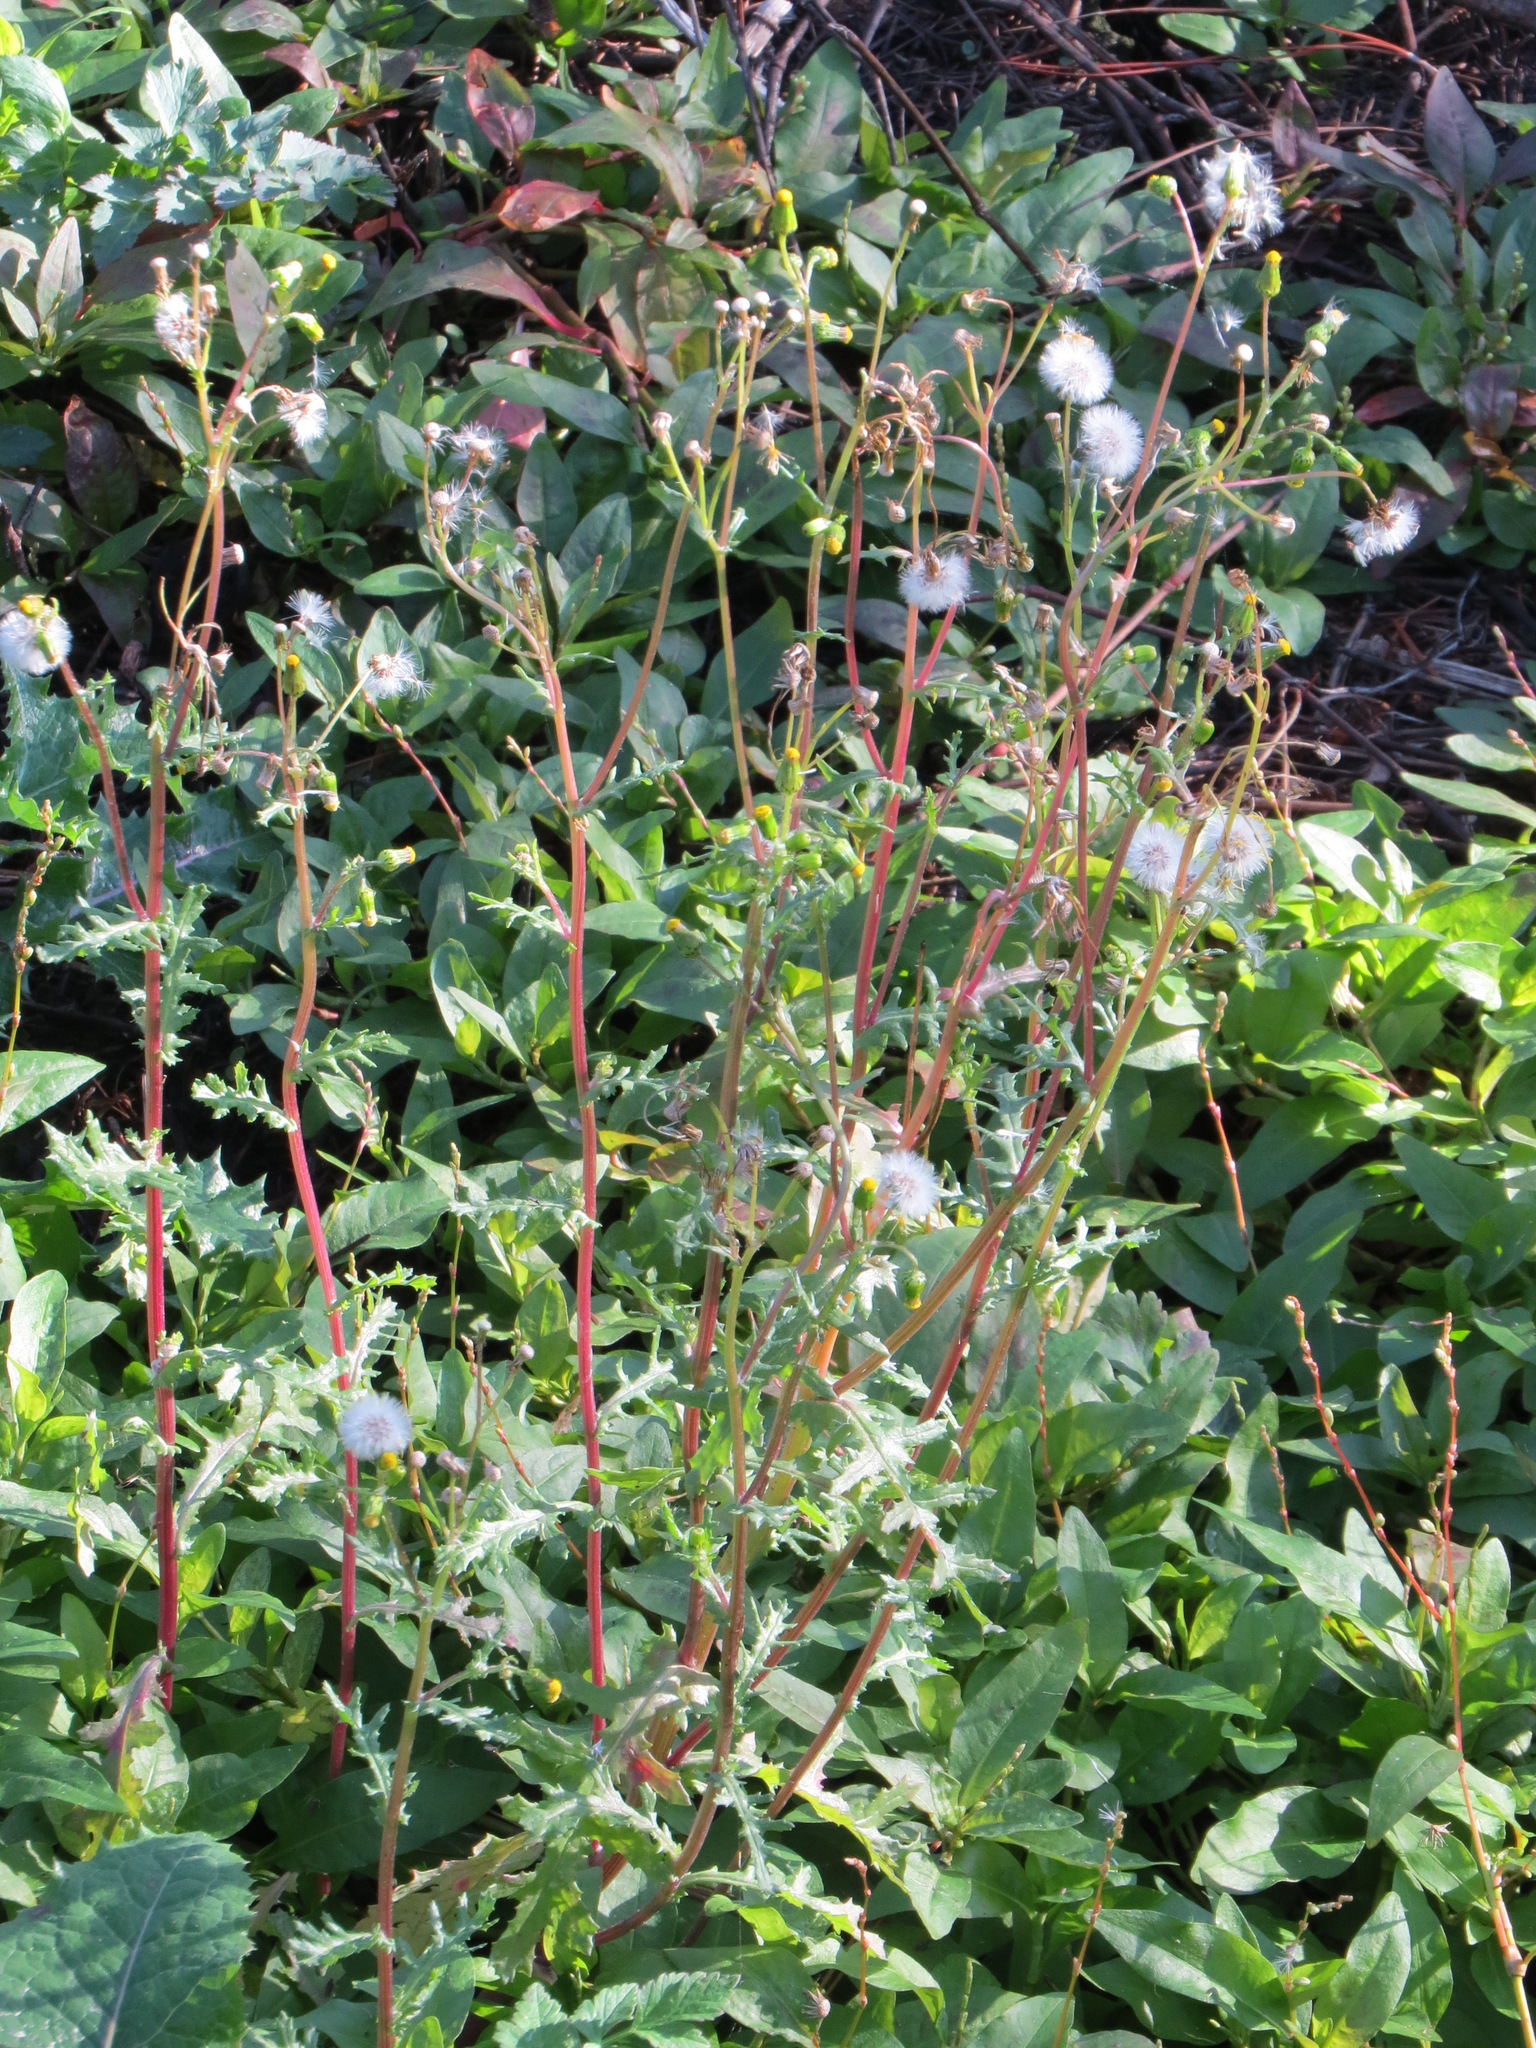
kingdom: Plantae
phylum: Tracheophyta
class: Magnoliopsida
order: Asterales
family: Asteraceae
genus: Senecio
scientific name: Senecio vulgaris
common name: Old-man-in-the-spring
